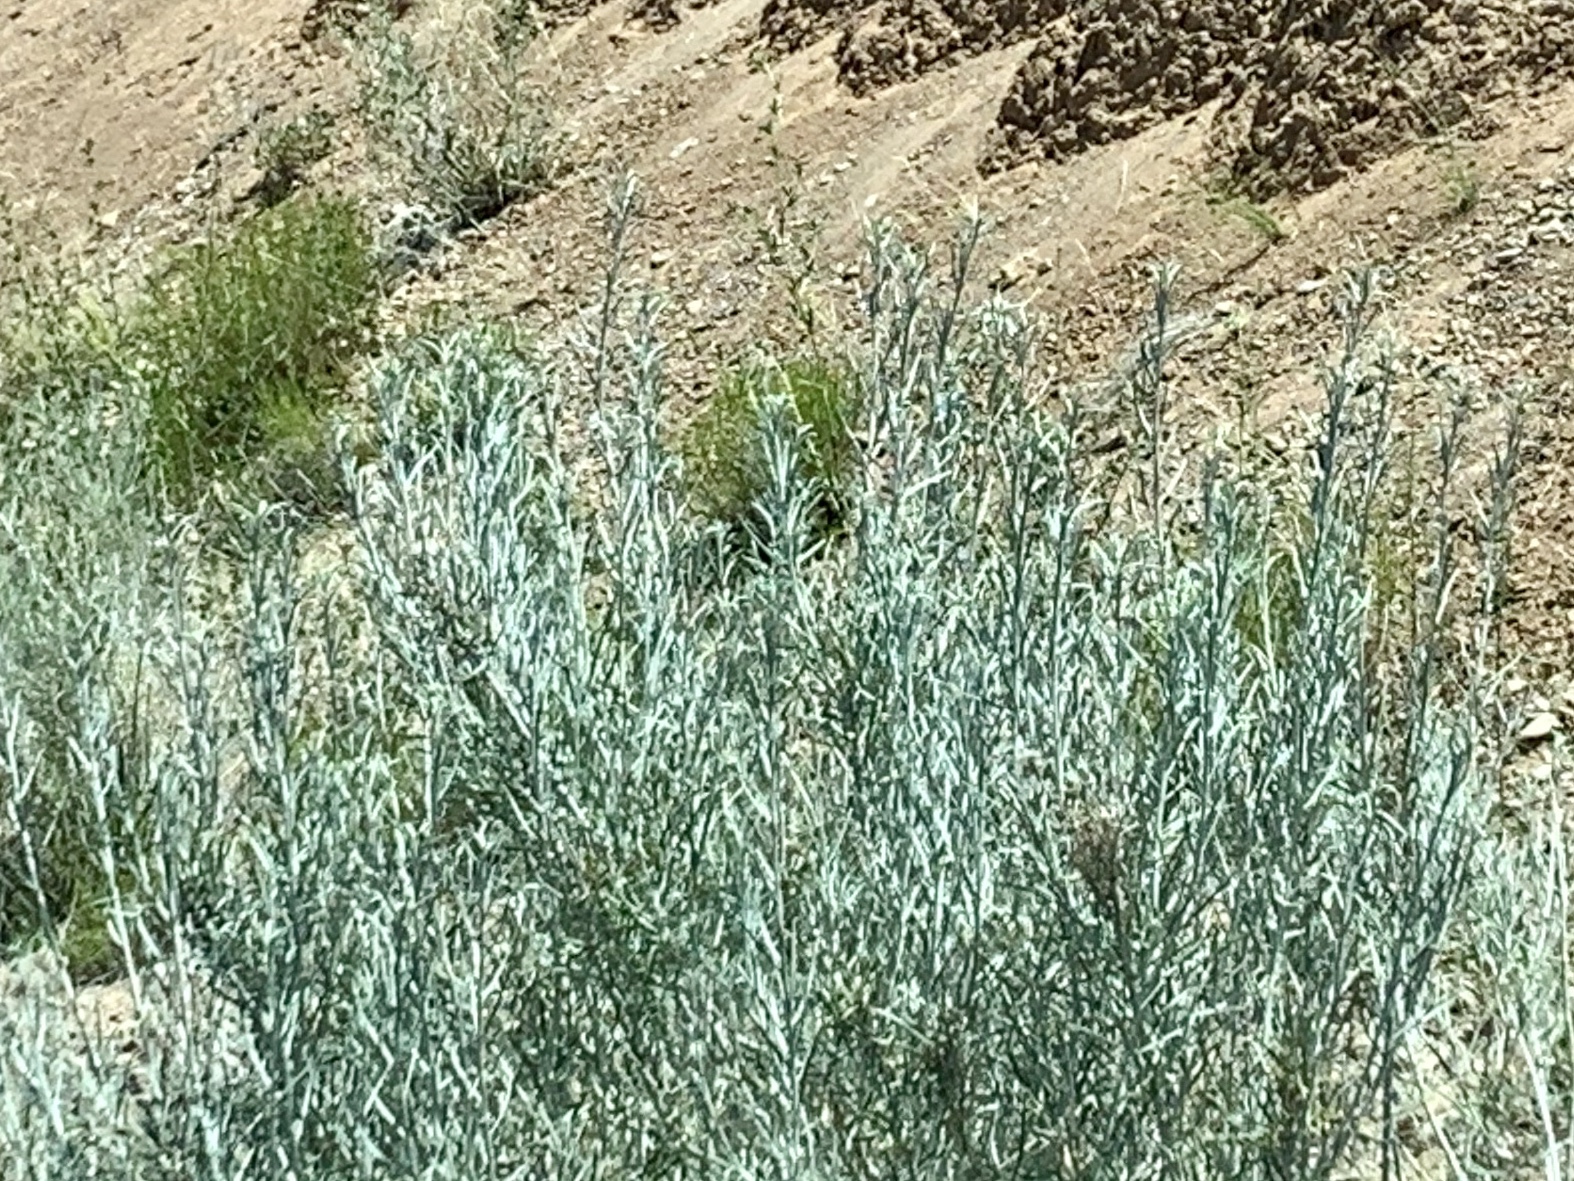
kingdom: Plantae
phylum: Tracheophyta
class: Magnoliopsida
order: Asterales
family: Asteraceae
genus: Artemisia
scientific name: Artemisia cana
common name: Silver sagebrush
